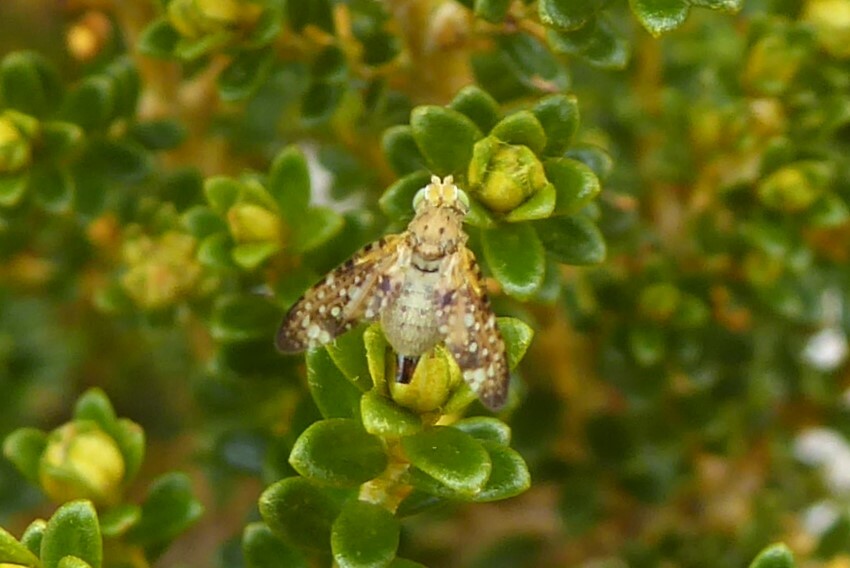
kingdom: Animalia
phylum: Arthropoda
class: Insecta
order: Diptera
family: Tephritidae
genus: Austrotephritis
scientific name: Austrotephritis
